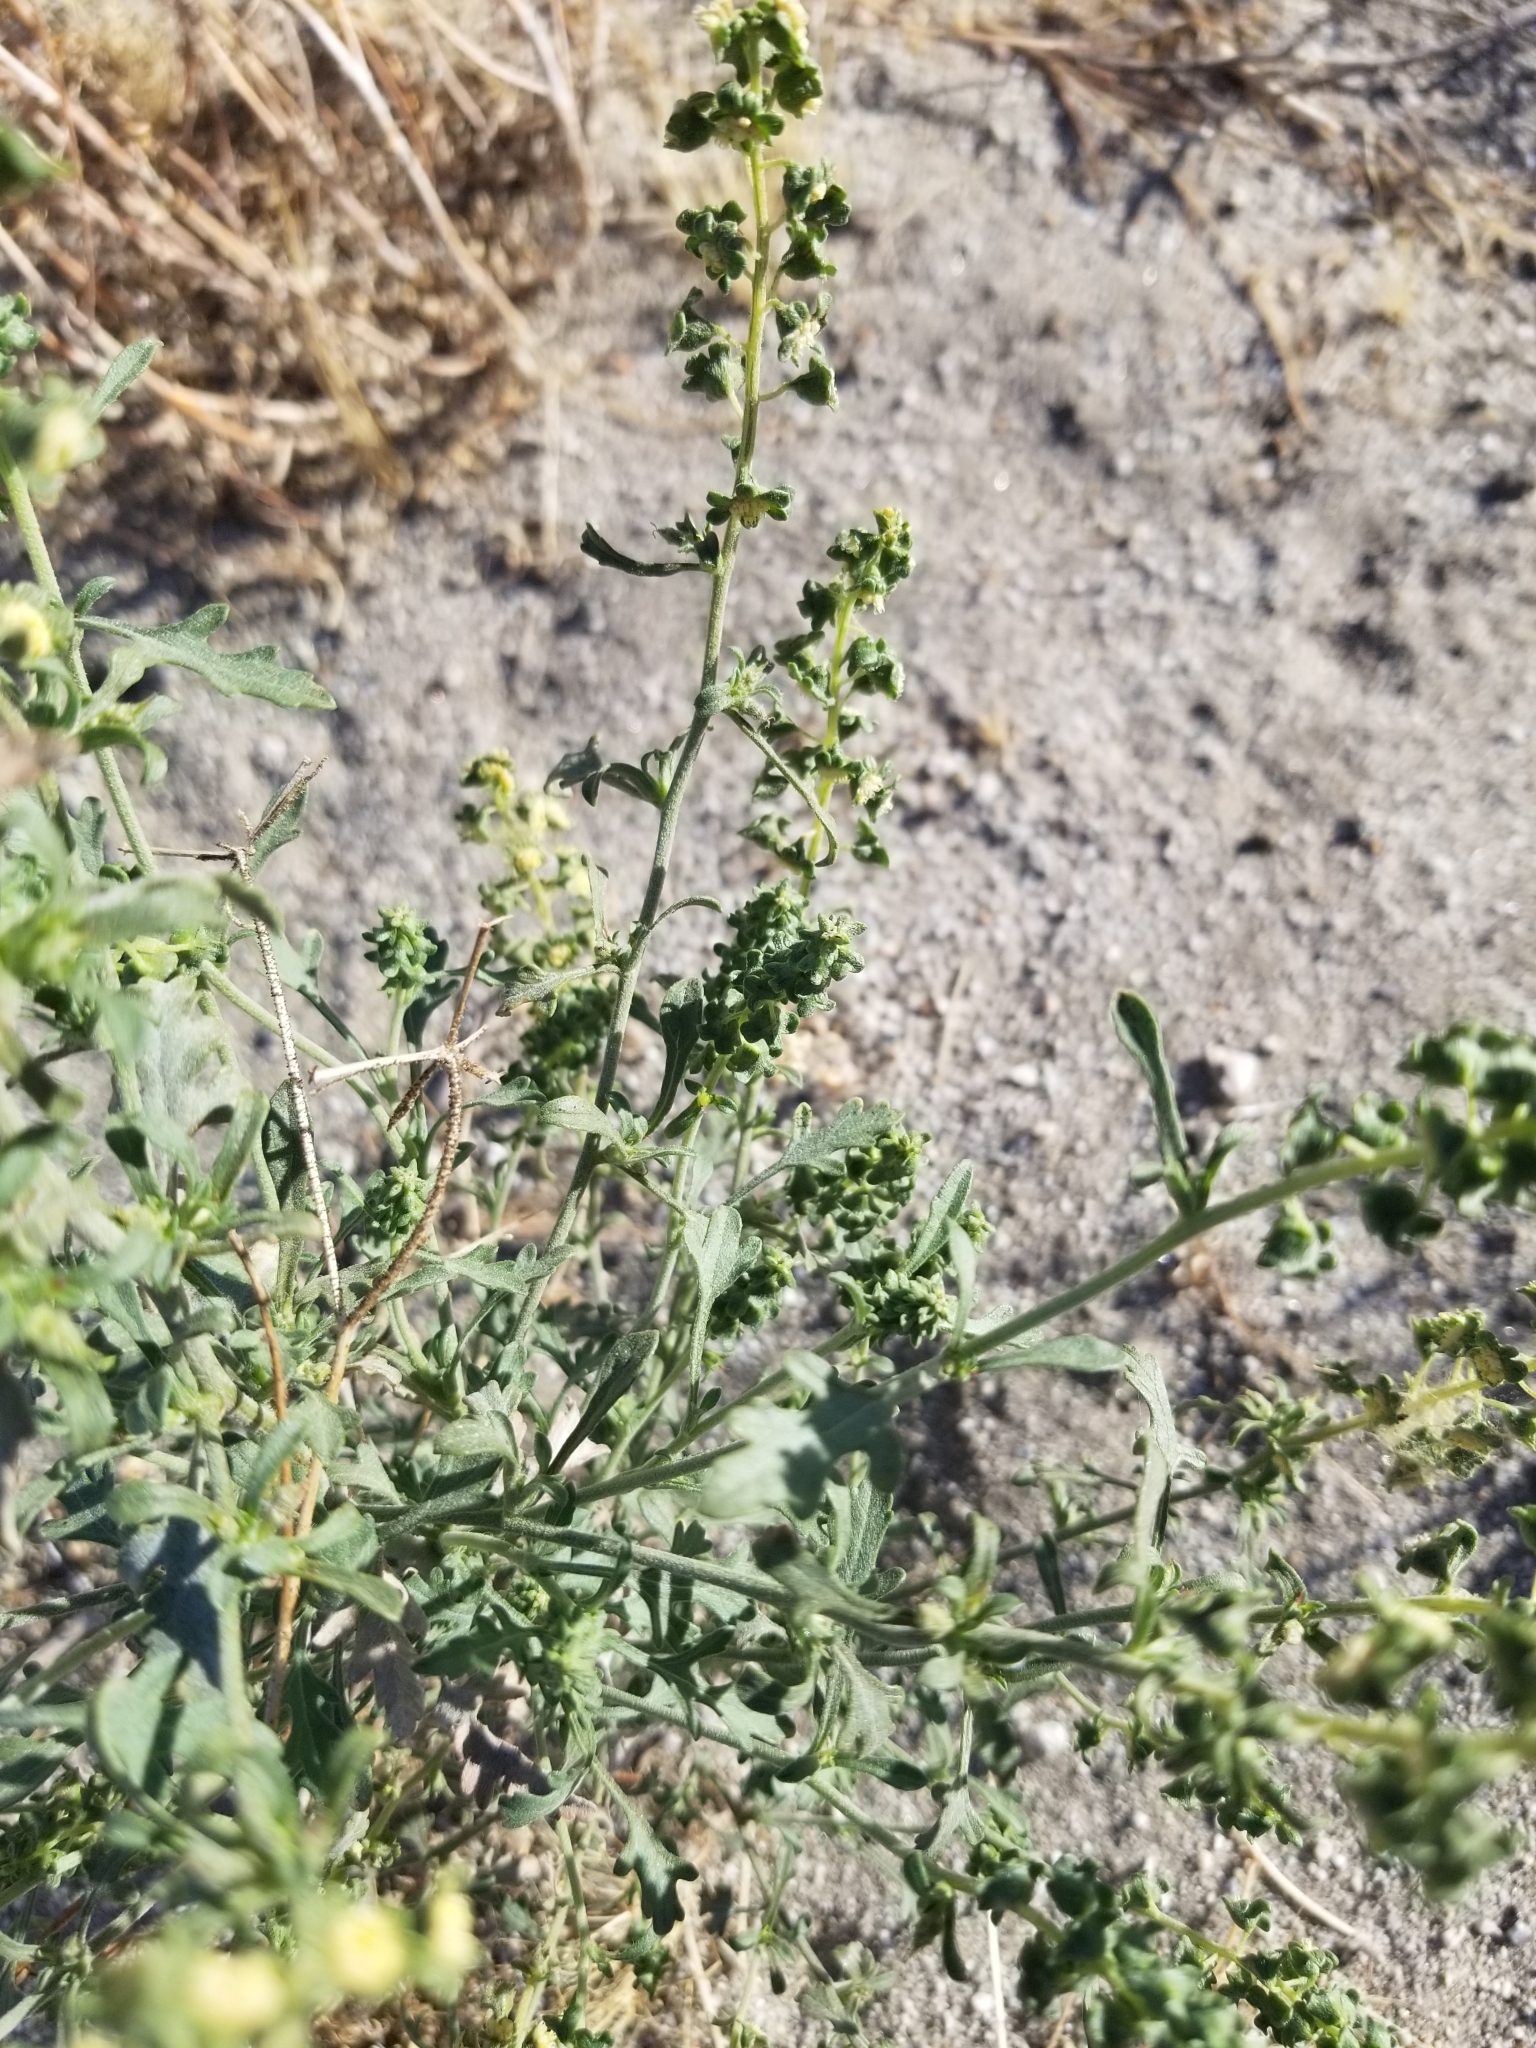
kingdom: Plantae
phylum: Tracheophyta
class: Magnoliopsida
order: Asterales
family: Asteraceae
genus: Ambrosia
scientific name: Ambrosia acanthicarpa
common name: Hooker's bur ragweed
